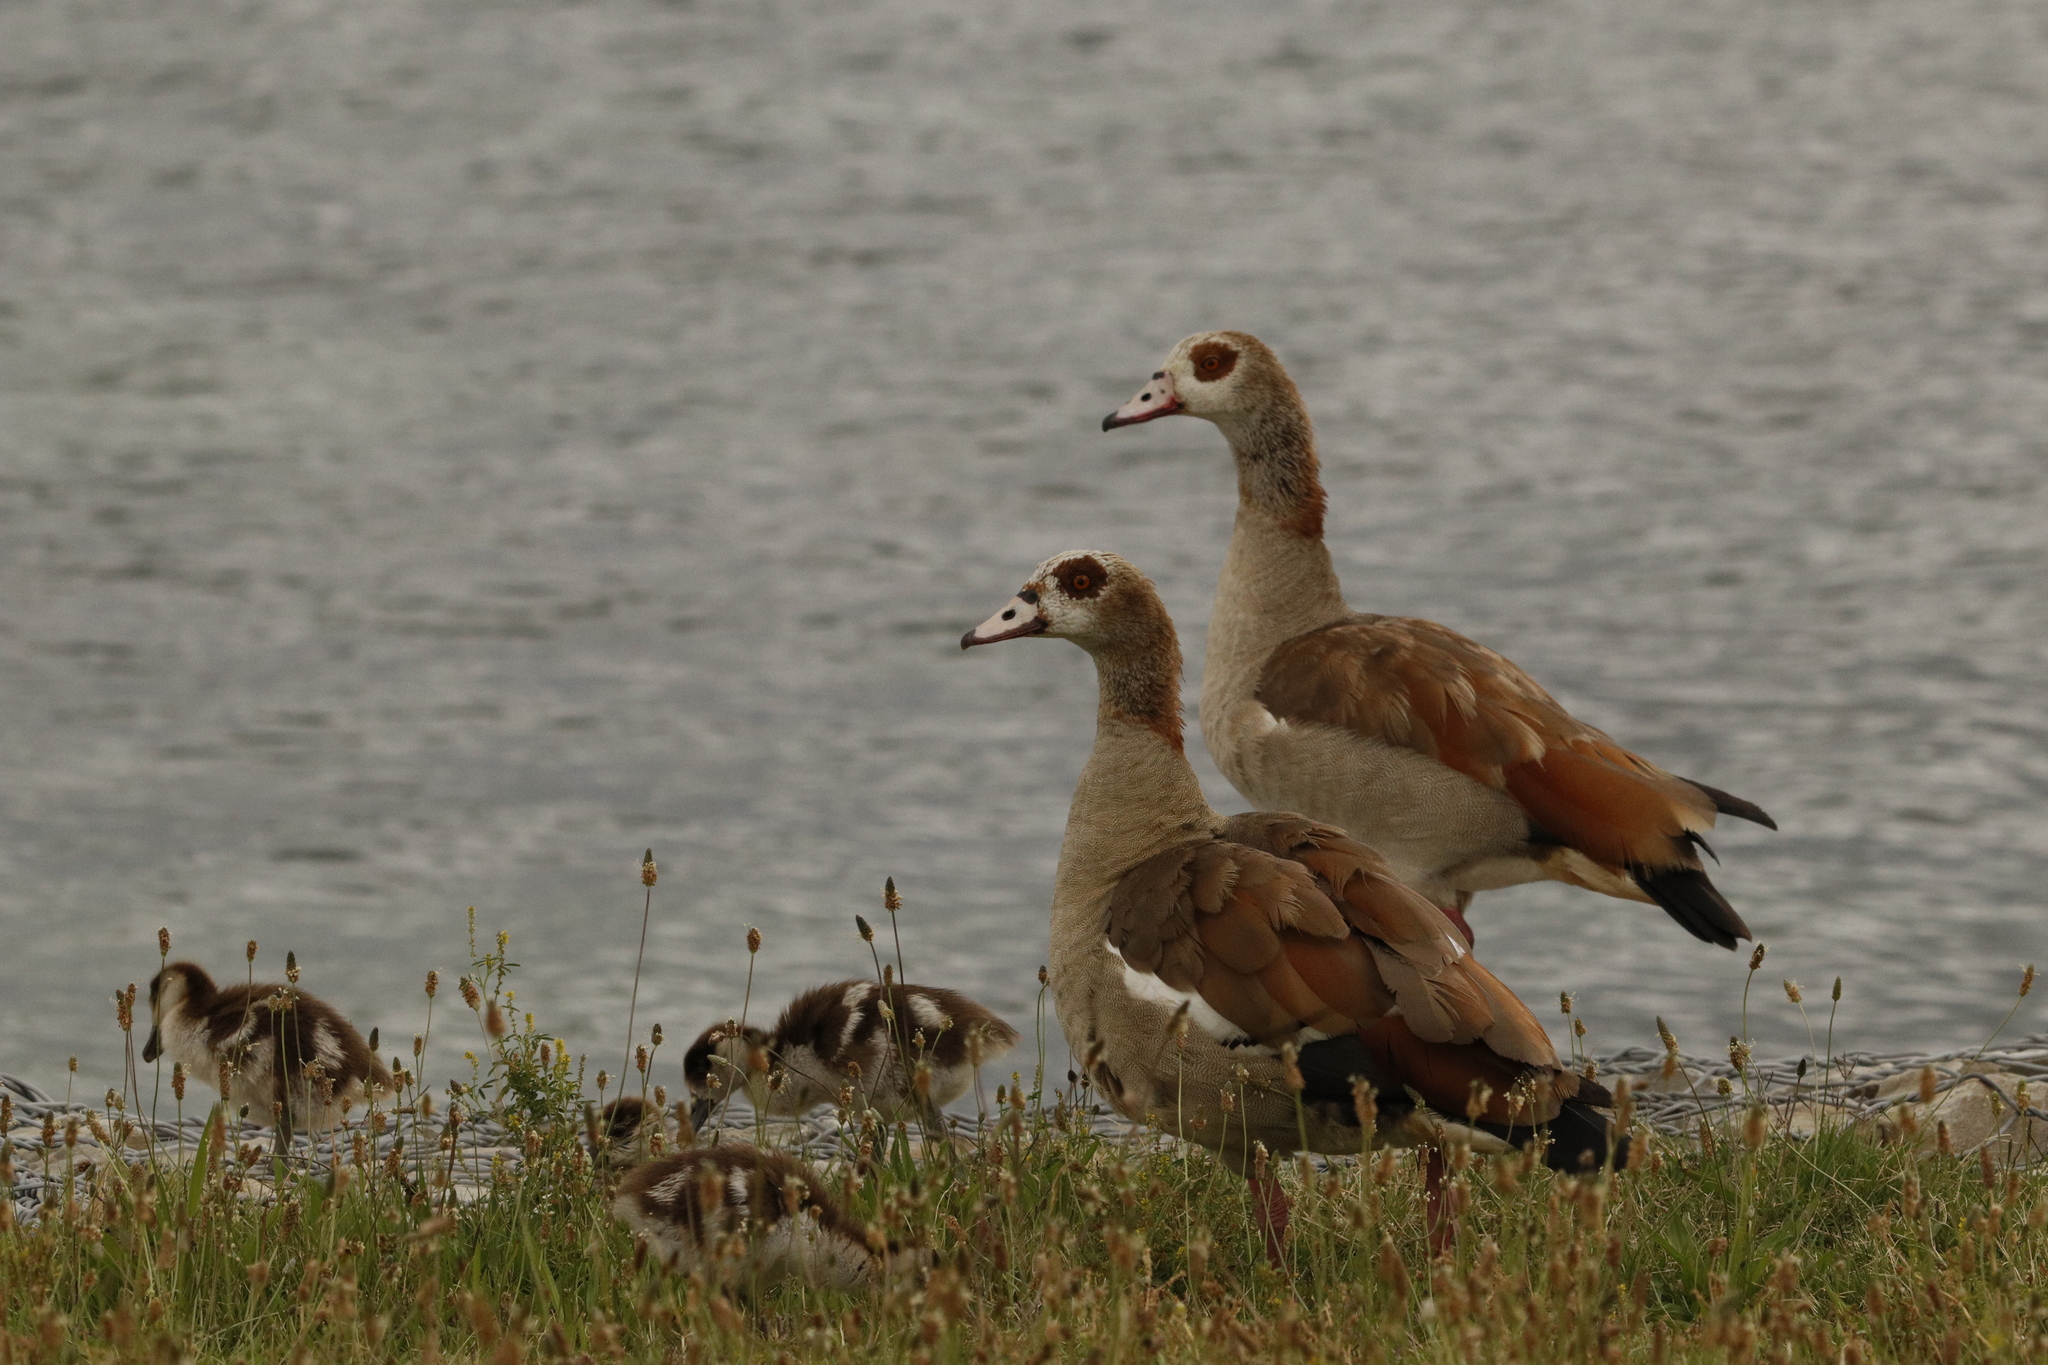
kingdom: Animalia
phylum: Chordata
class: Aves
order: Anseriformes
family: Anatidae
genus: Alopochen
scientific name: Alopochen aegyptiaca
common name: Egyptian goose
